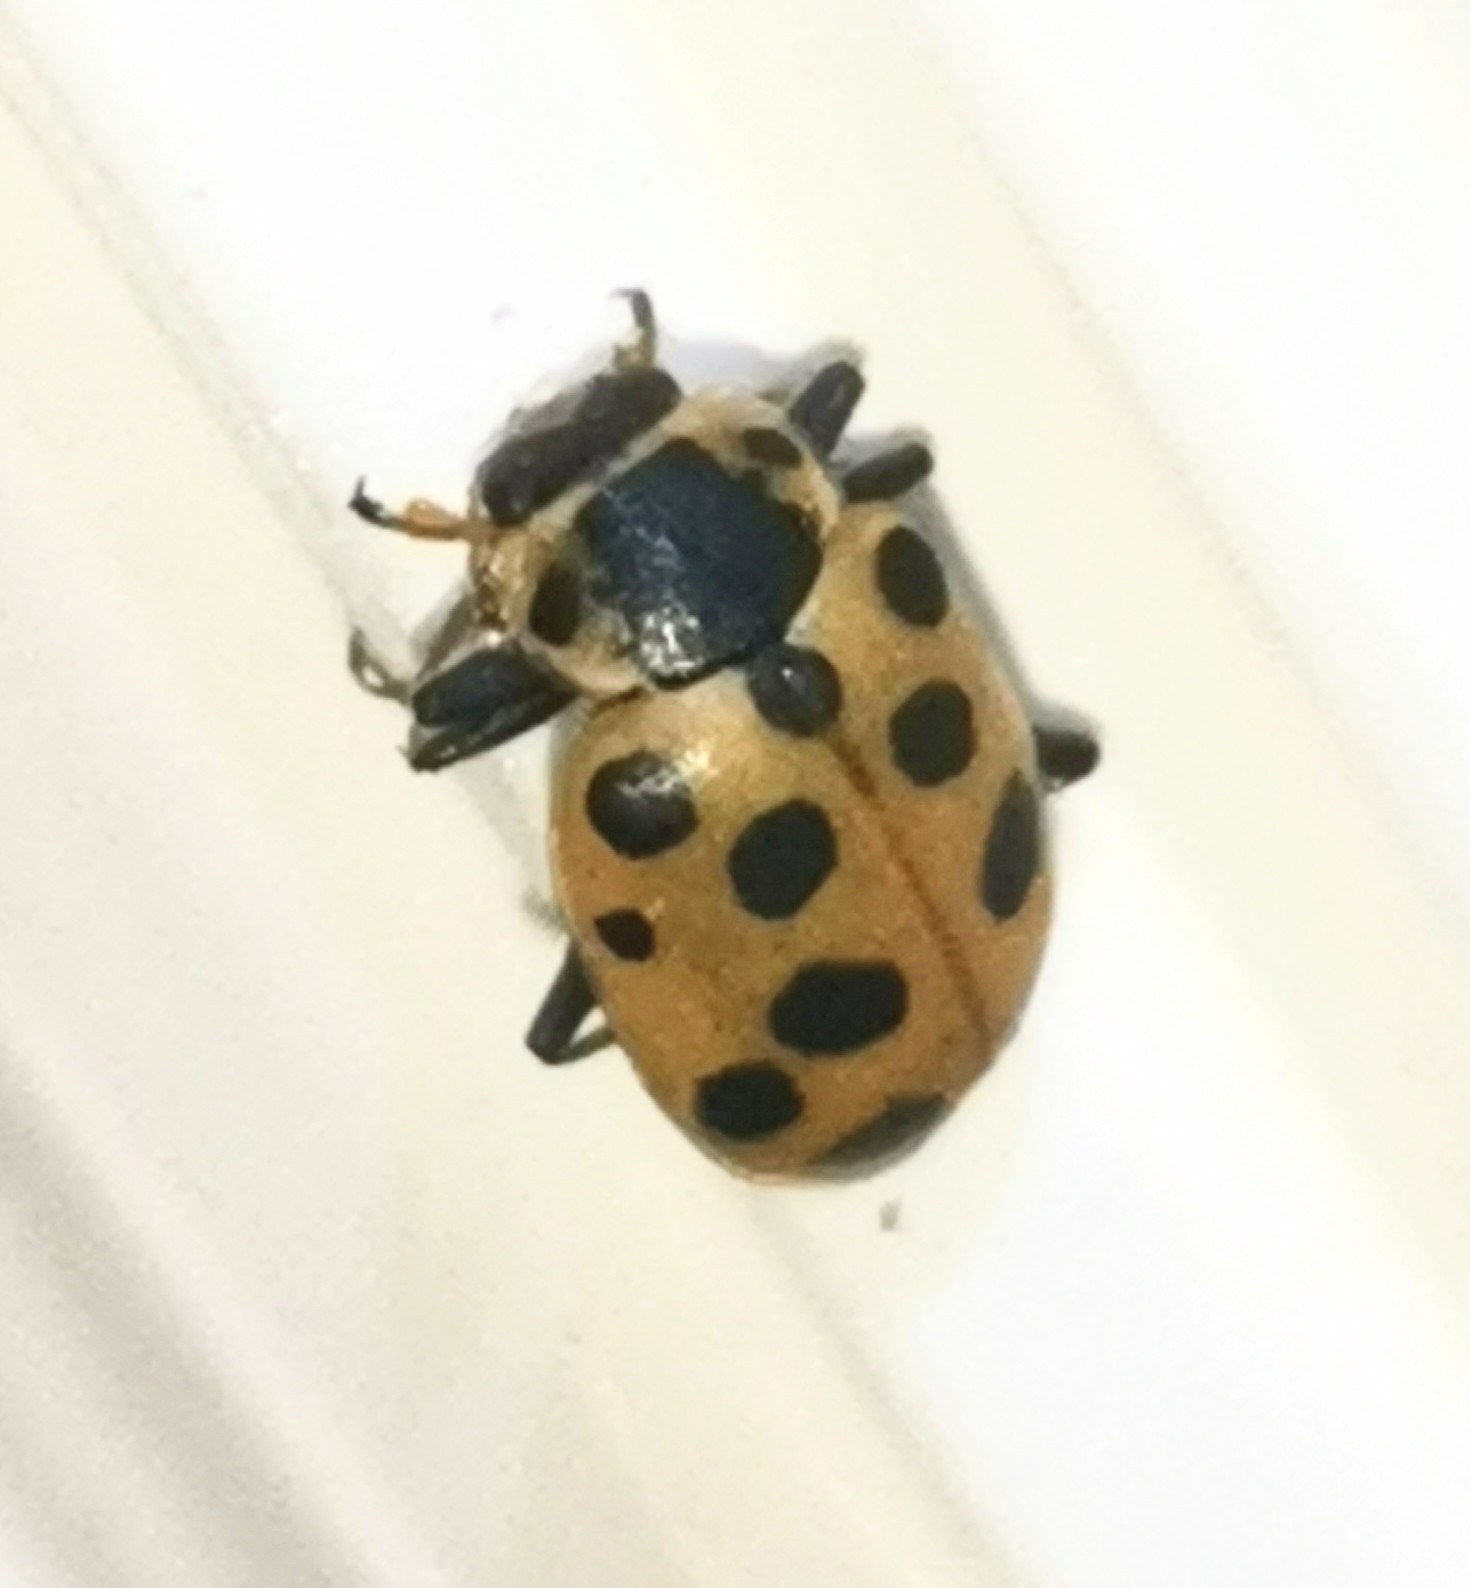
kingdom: Animalia
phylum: Arthropoda
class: Insecta
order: Coleoptera
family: Coccinellidae
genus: Hippodamia
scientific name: Hippodamia tredecimpunctata
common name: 13-spot ladybird
